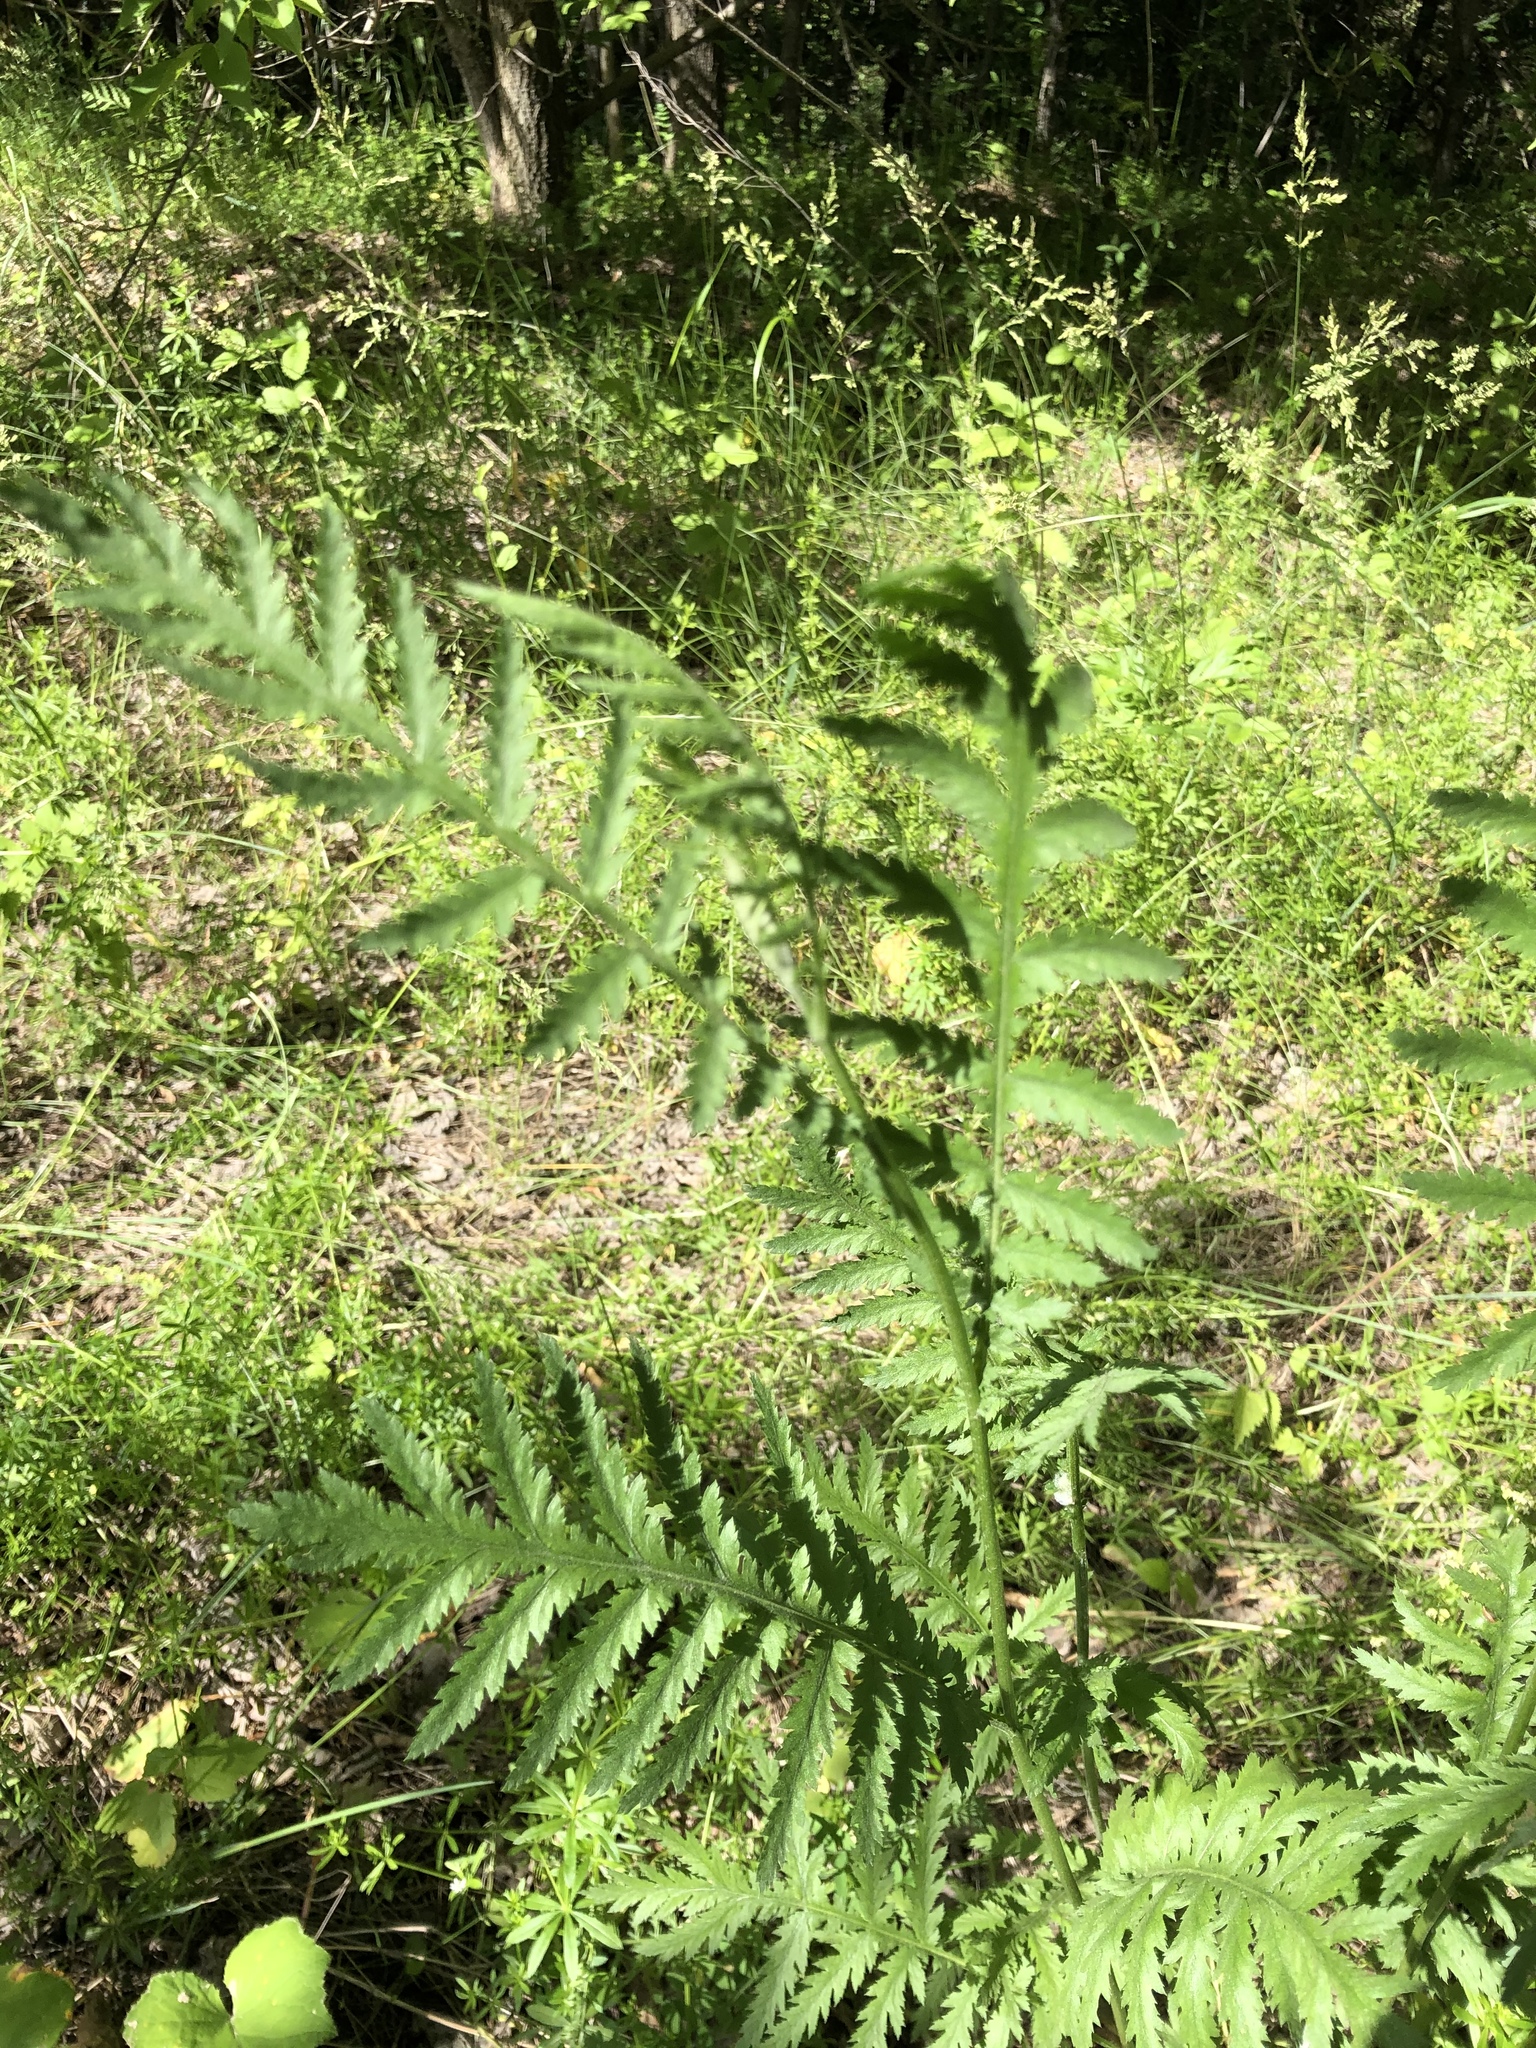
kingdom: Plantae
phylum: Tracheophyta
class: Magnoliopsida
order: Asterales
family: Asteraceae
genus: Tanacetum
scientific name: Tanacetum vulgare
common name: Common tansy
